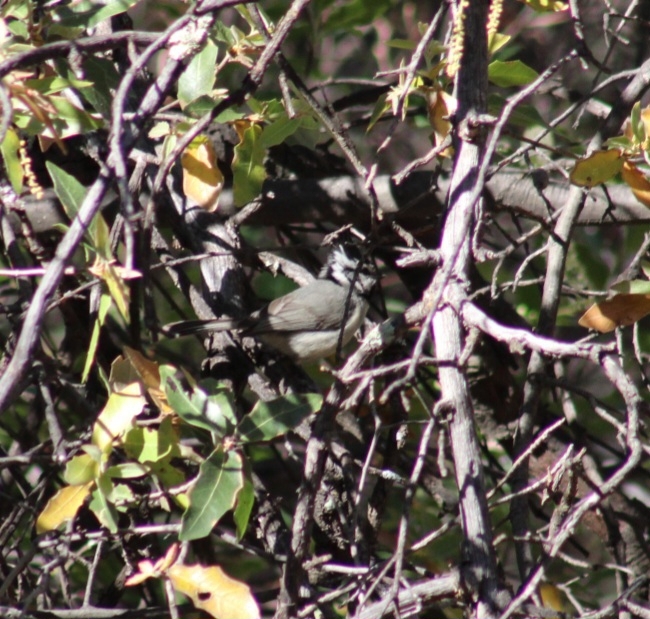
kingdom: Animalia
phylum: Chordata
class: Aves
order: Passeriformes
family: Paridae
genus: Baeolophus
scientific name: Baeolophus wollweberi
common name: Bridled titmouse
